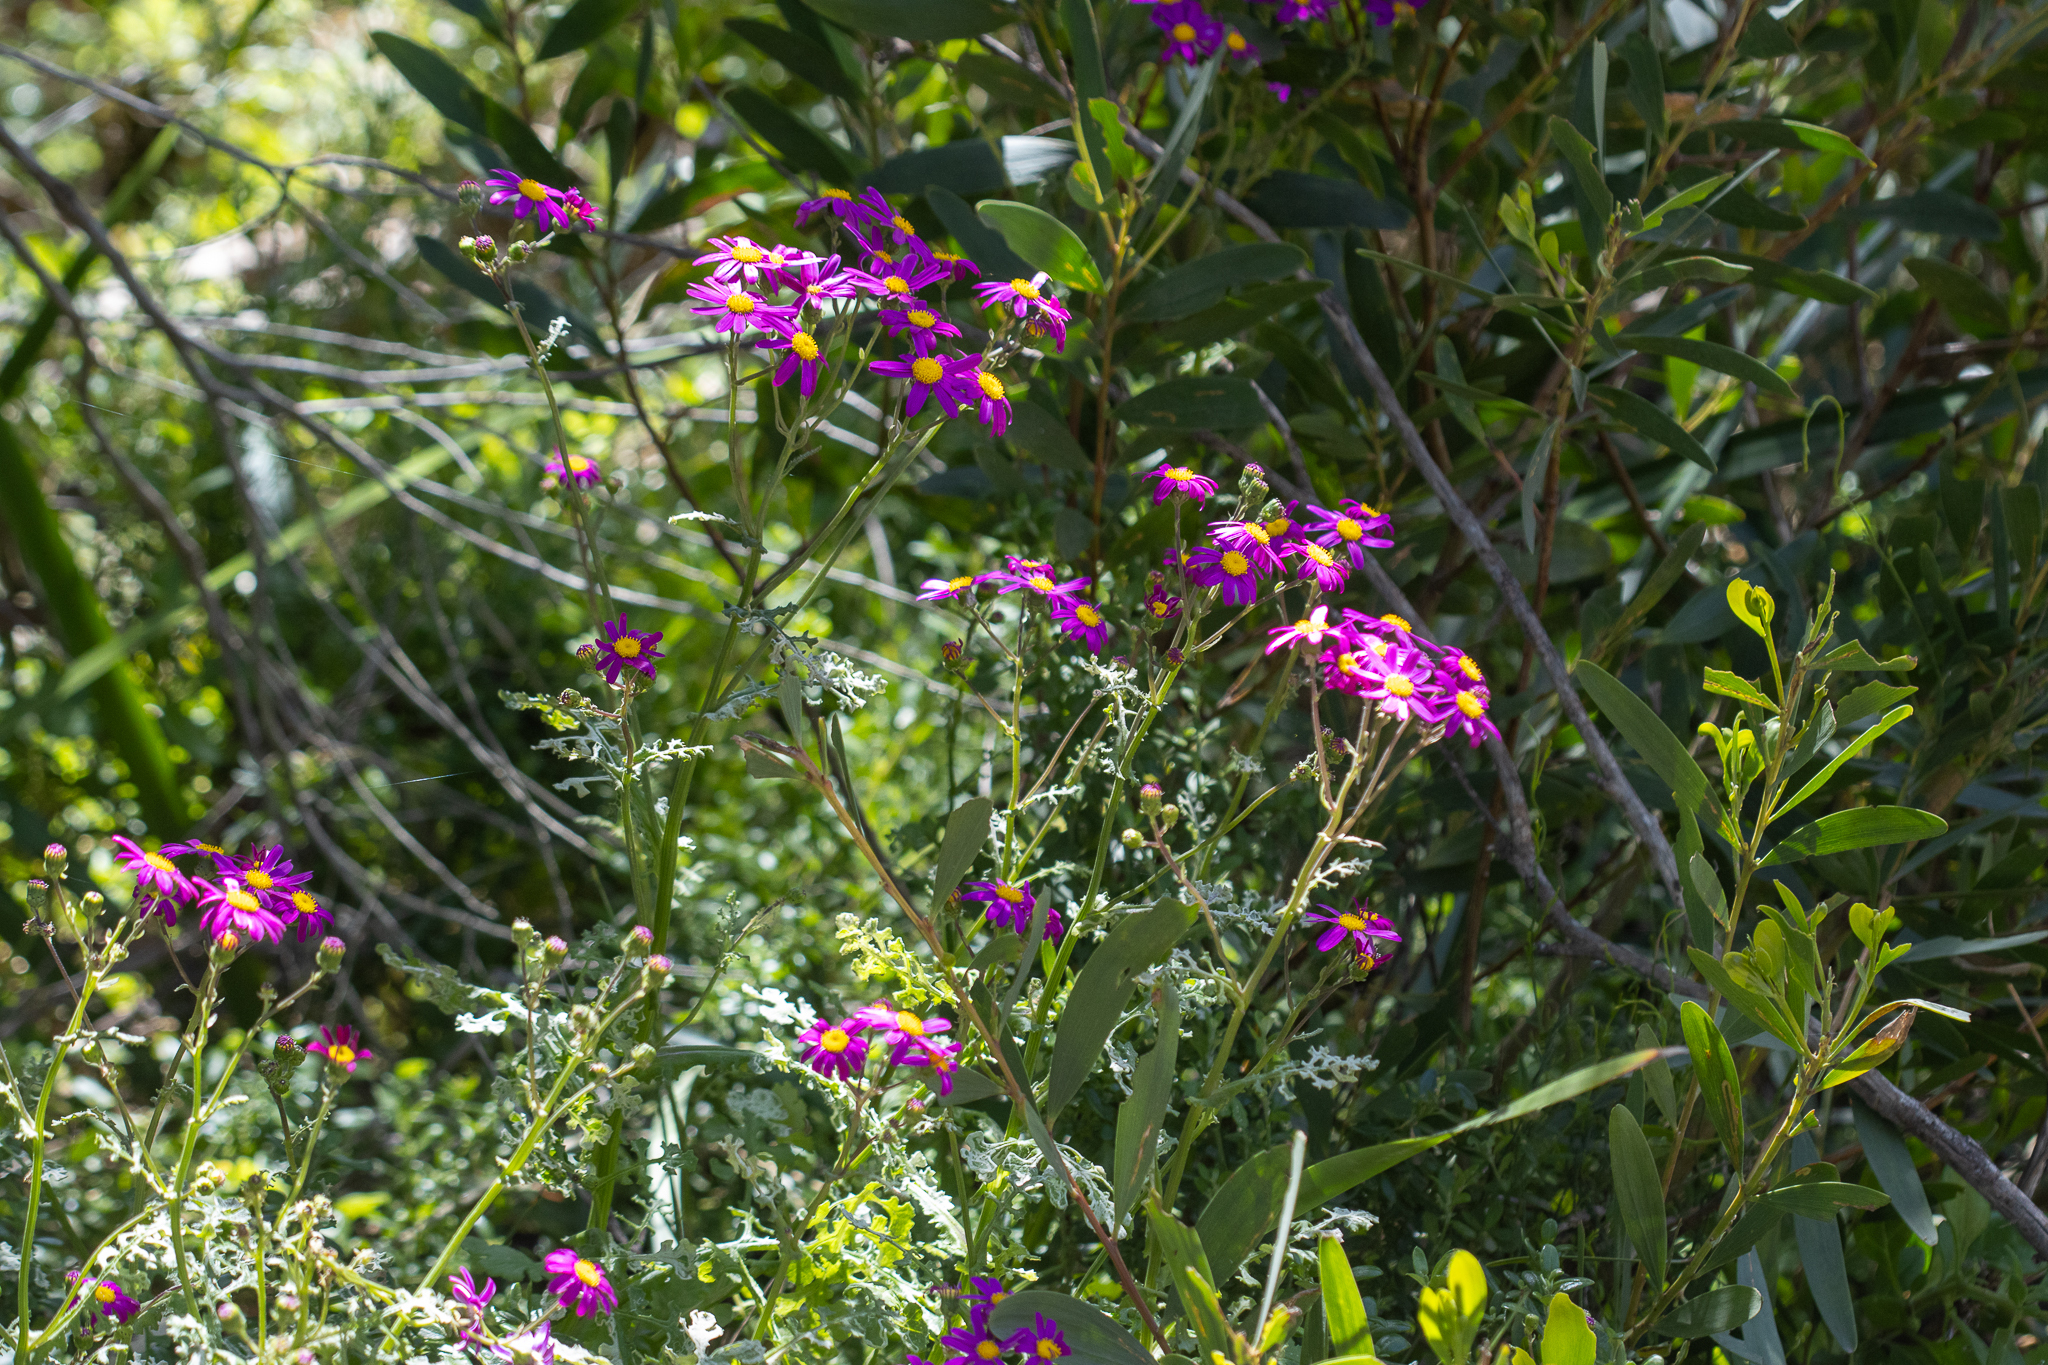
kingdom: Plantae
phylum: Tracheophyta
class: Magnoliopsida
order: Asterales
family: Asteraceae
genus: Senecio
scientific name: Senecio elegans
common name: Purple groundsel
